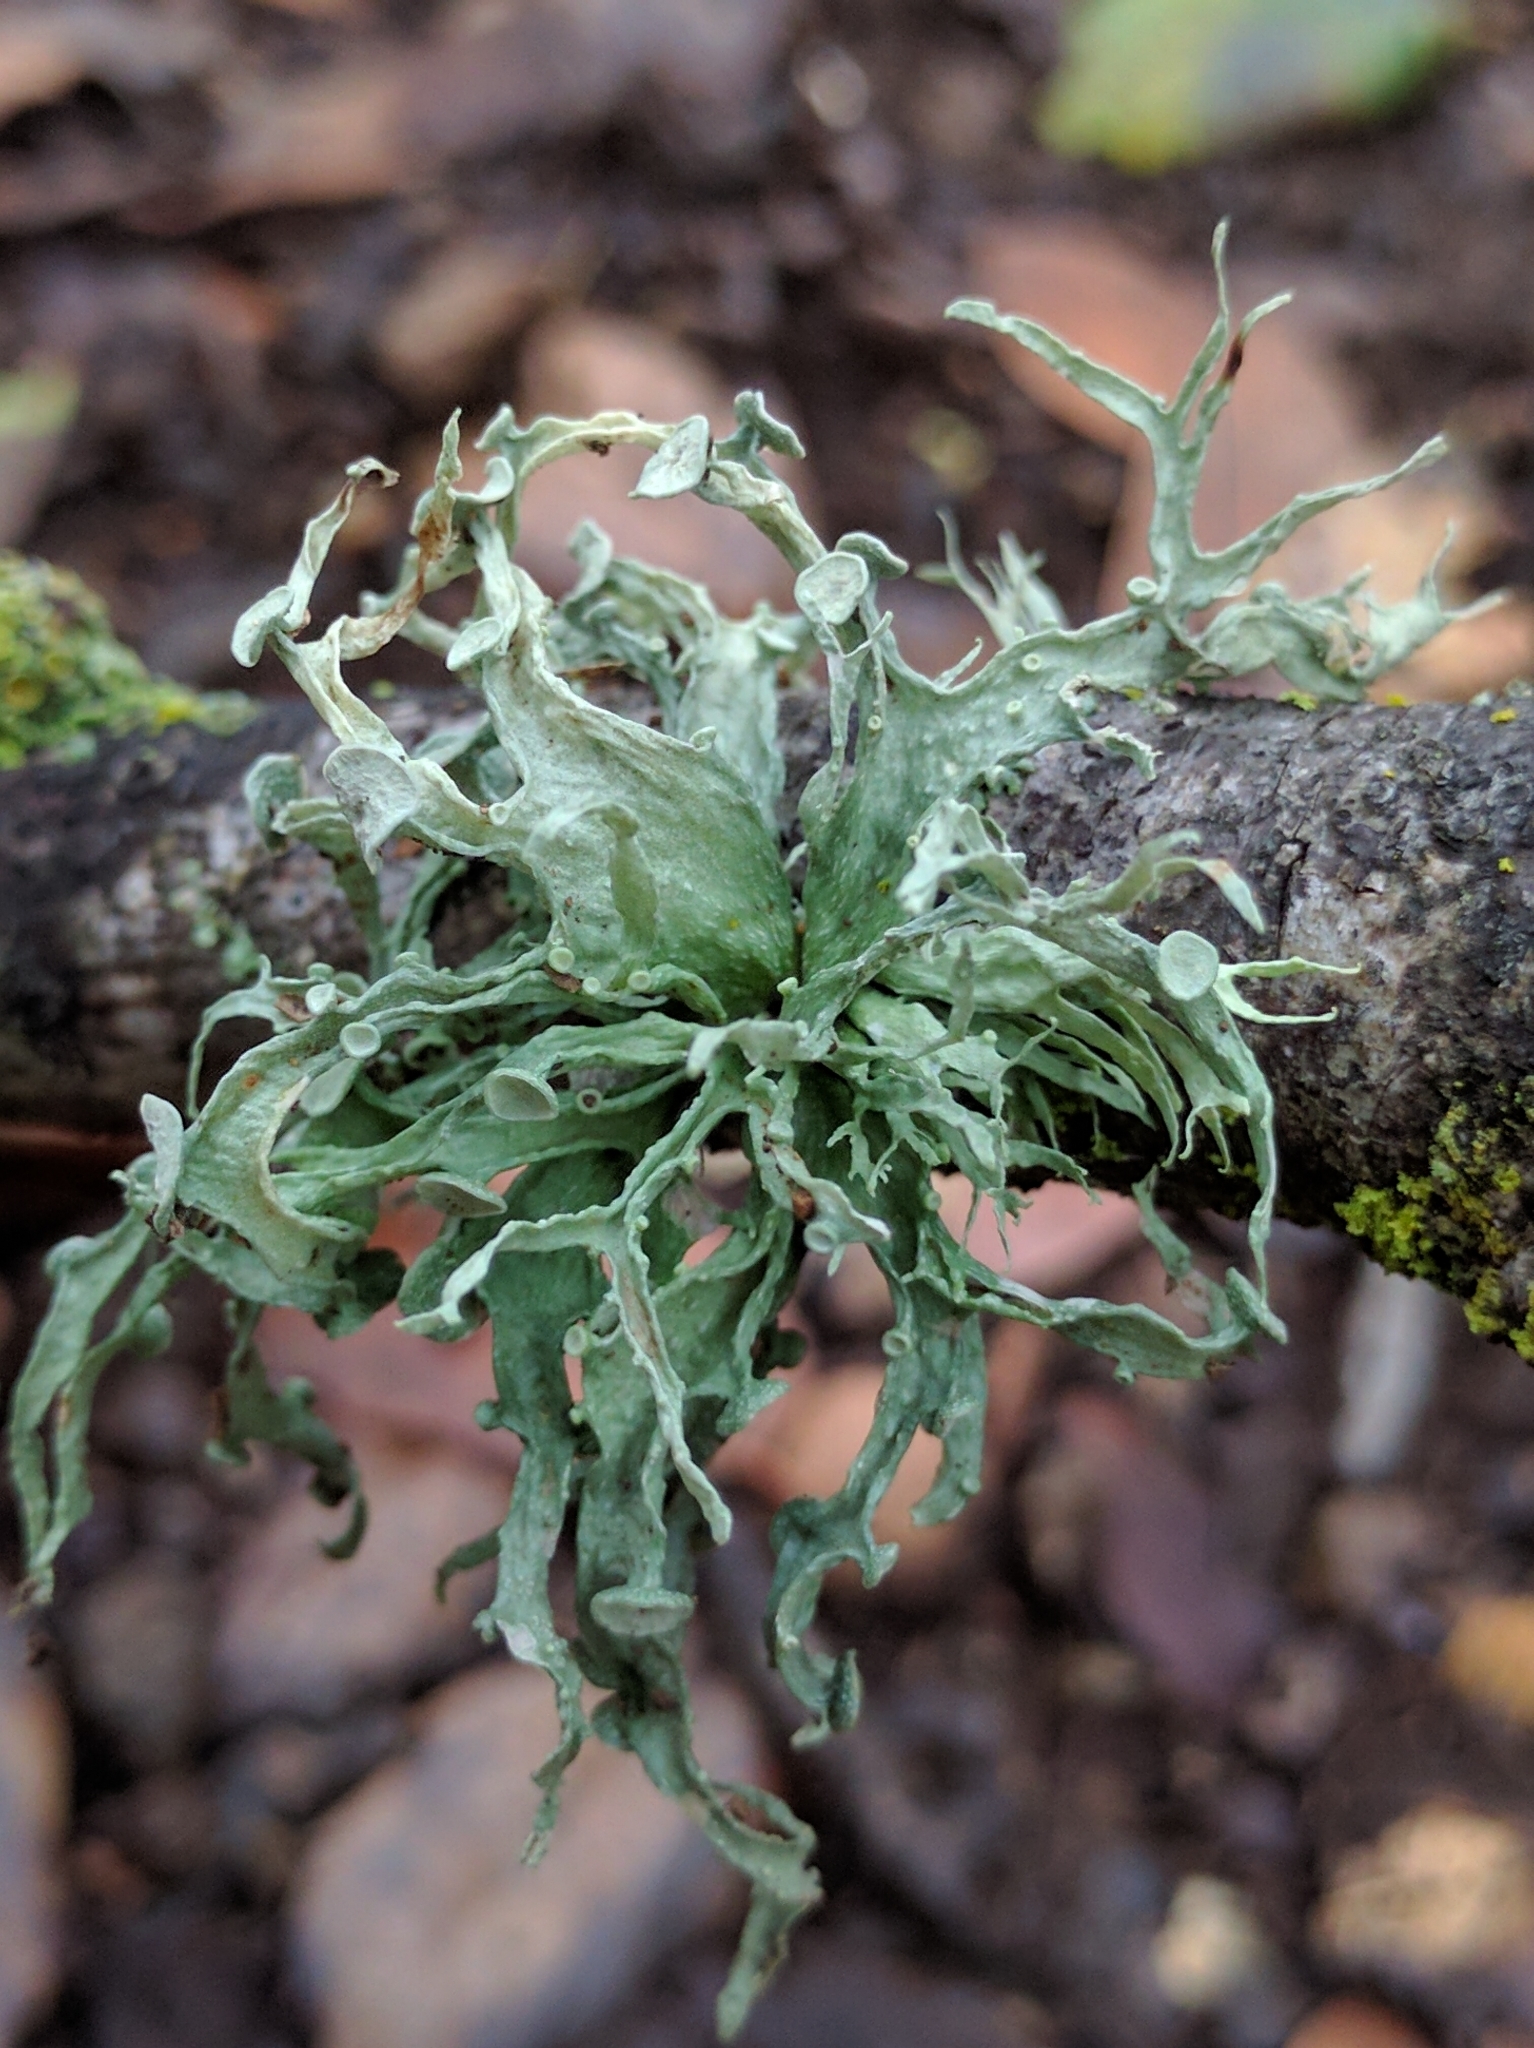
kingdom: Fungi
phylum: Ascomycota
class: Lecanoromycetes
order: Lecanorales
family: Ramalinaceae
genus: Ramalina
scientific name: Ramalina leptocarpha
